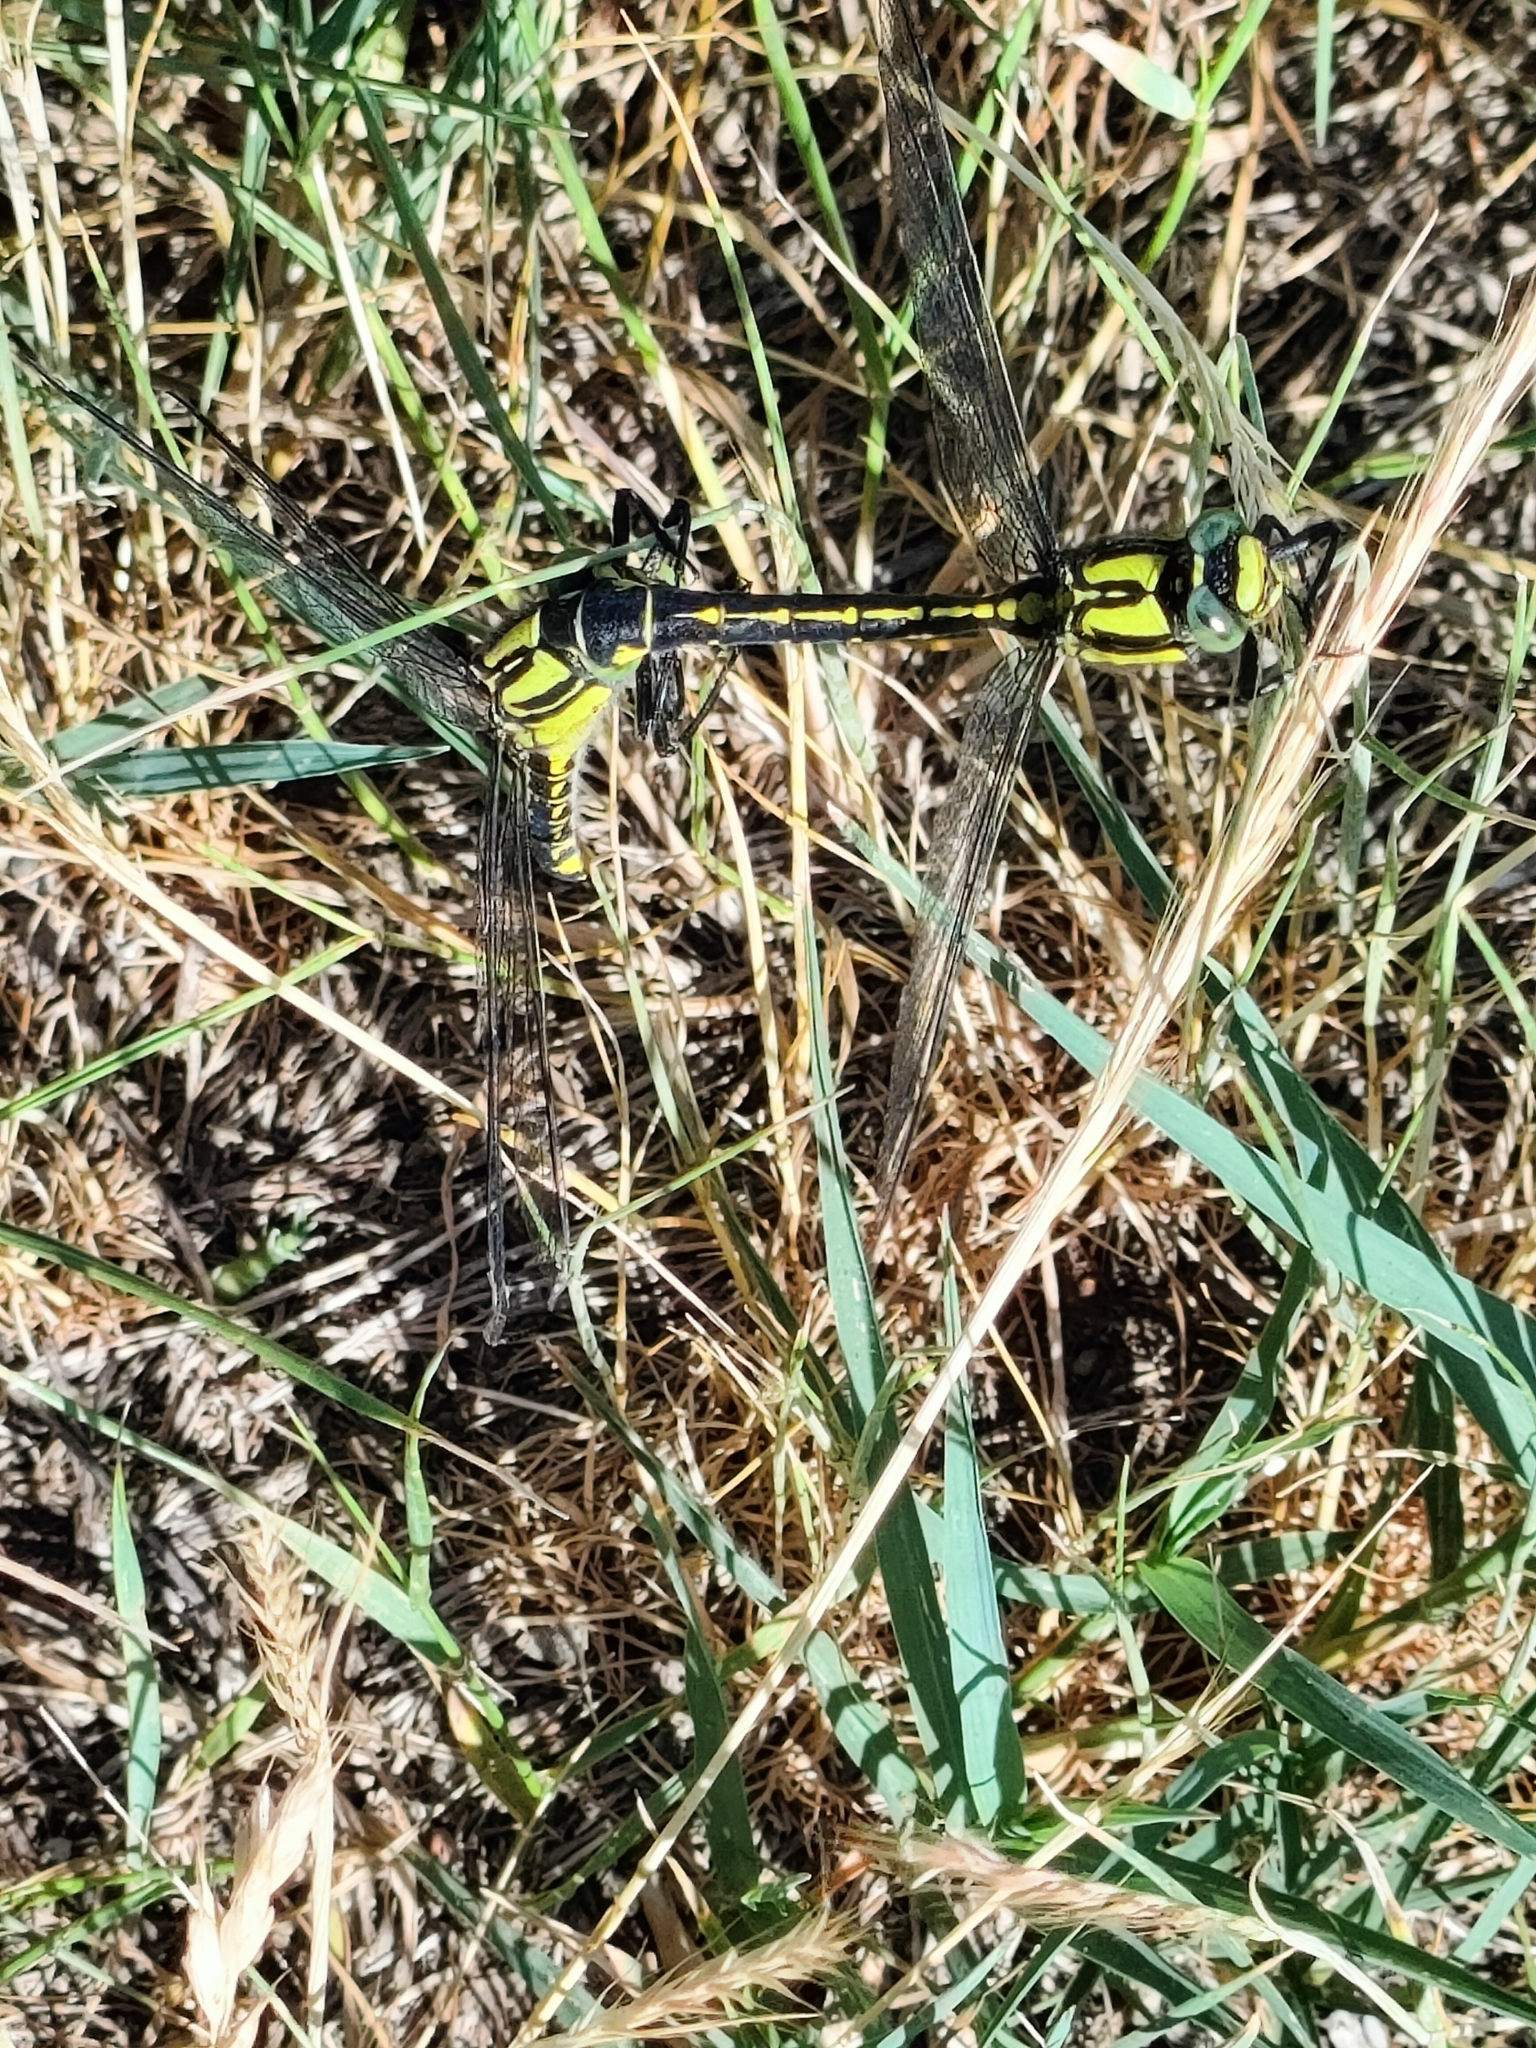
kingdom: Animalia
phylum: Arthropoda
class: Insecta
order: Odonata
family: Gomphidae
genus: Gomphus
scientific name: Gomphus vulgatissimus
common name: Club-tailed dragonfly
